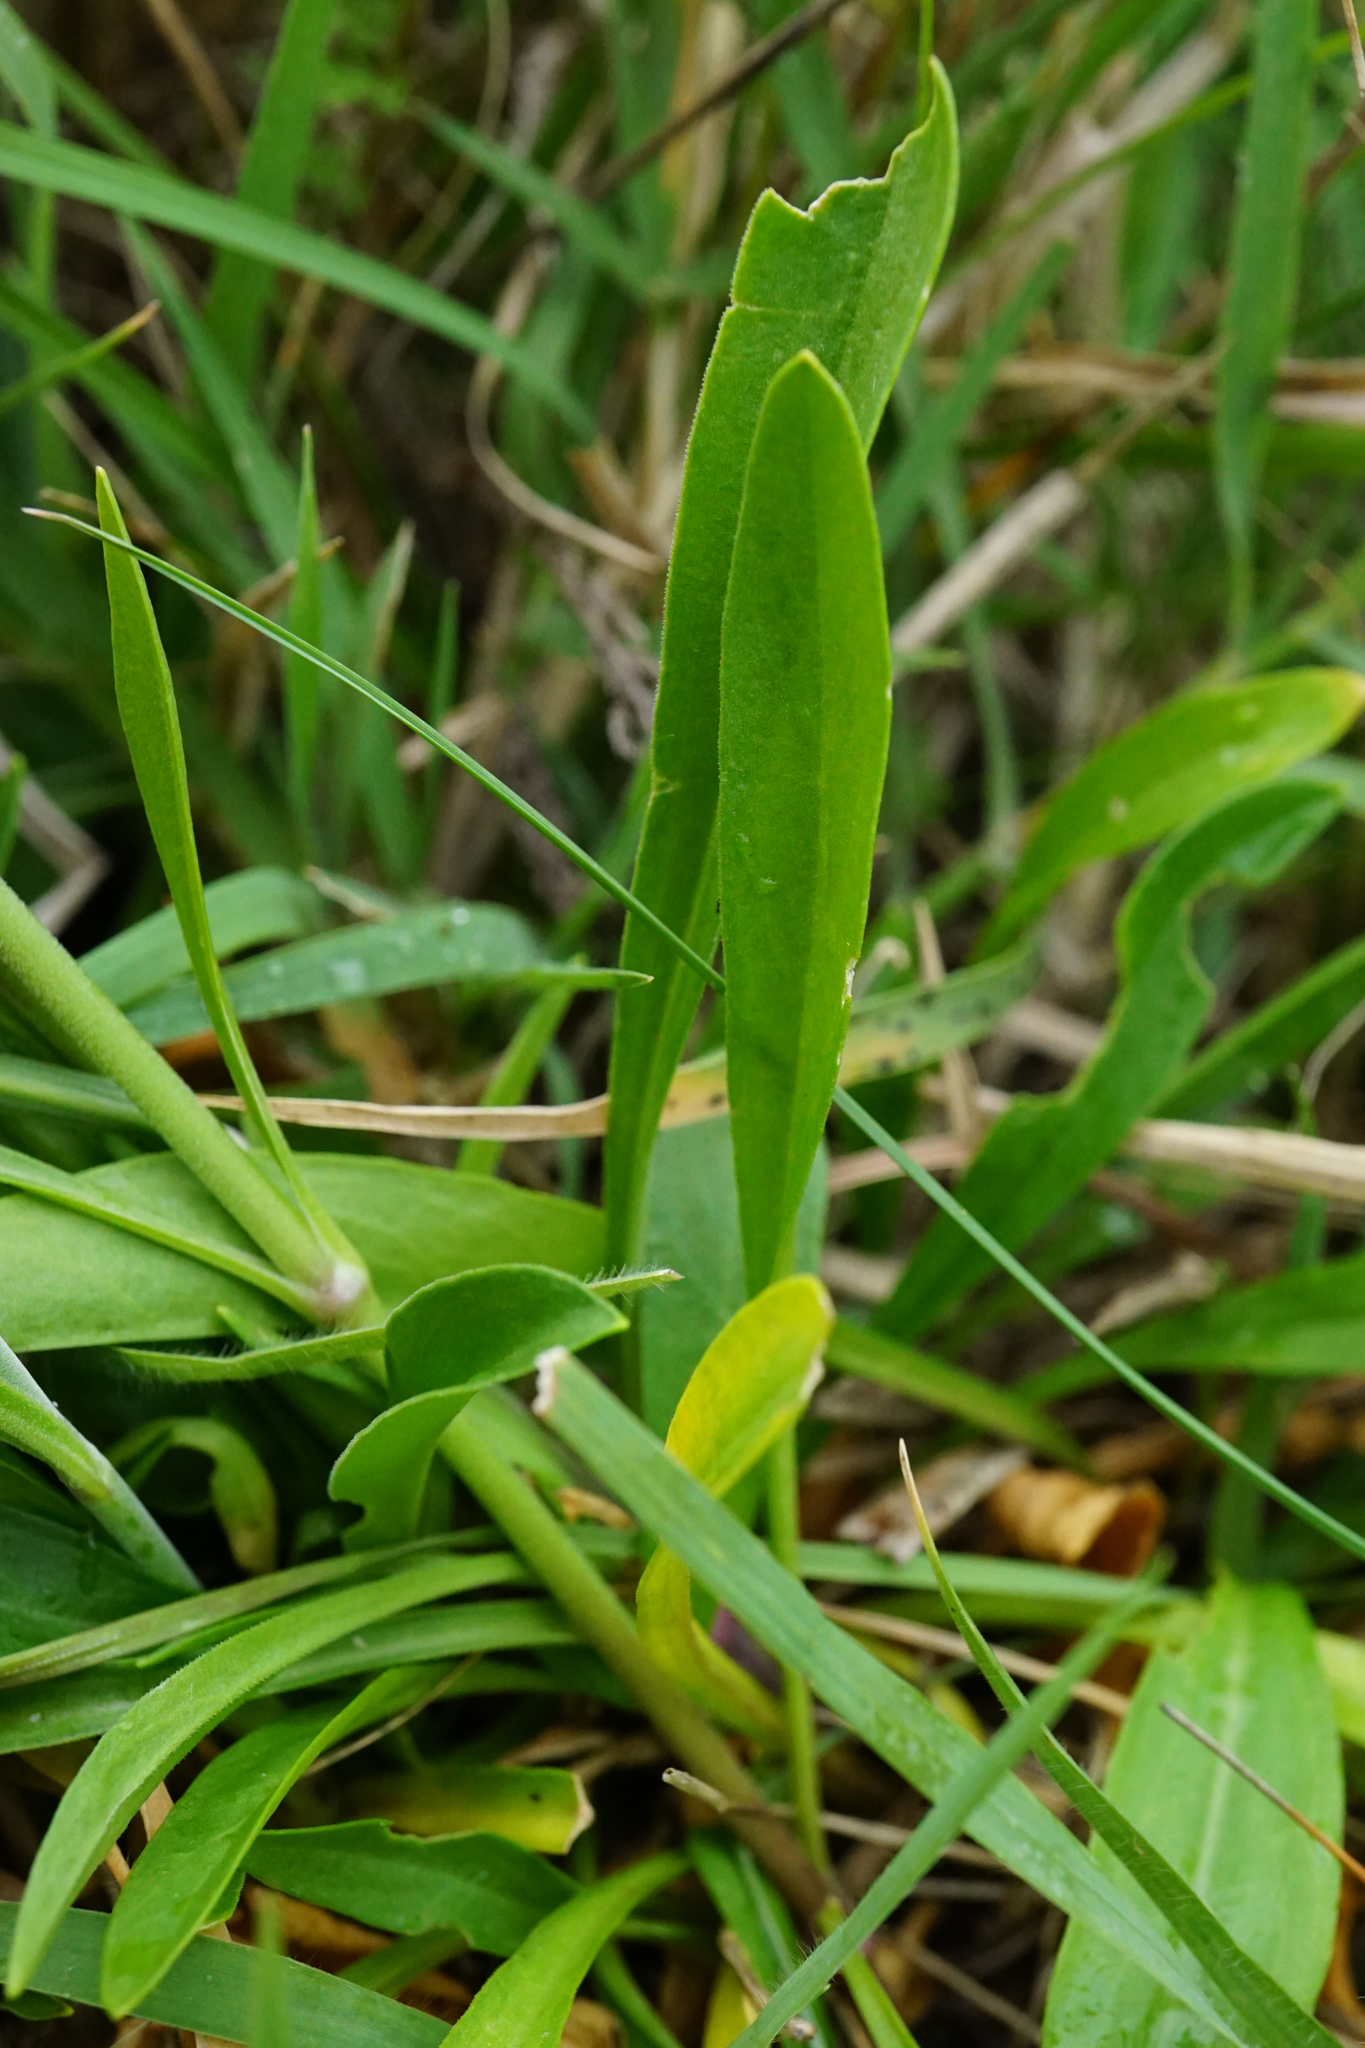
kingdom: Plantae
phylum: Tracheophyta
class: Magnoliopsida
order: Caryophyllales
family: Caryophyllaceae
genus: Silene
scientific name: Silene multiflora
